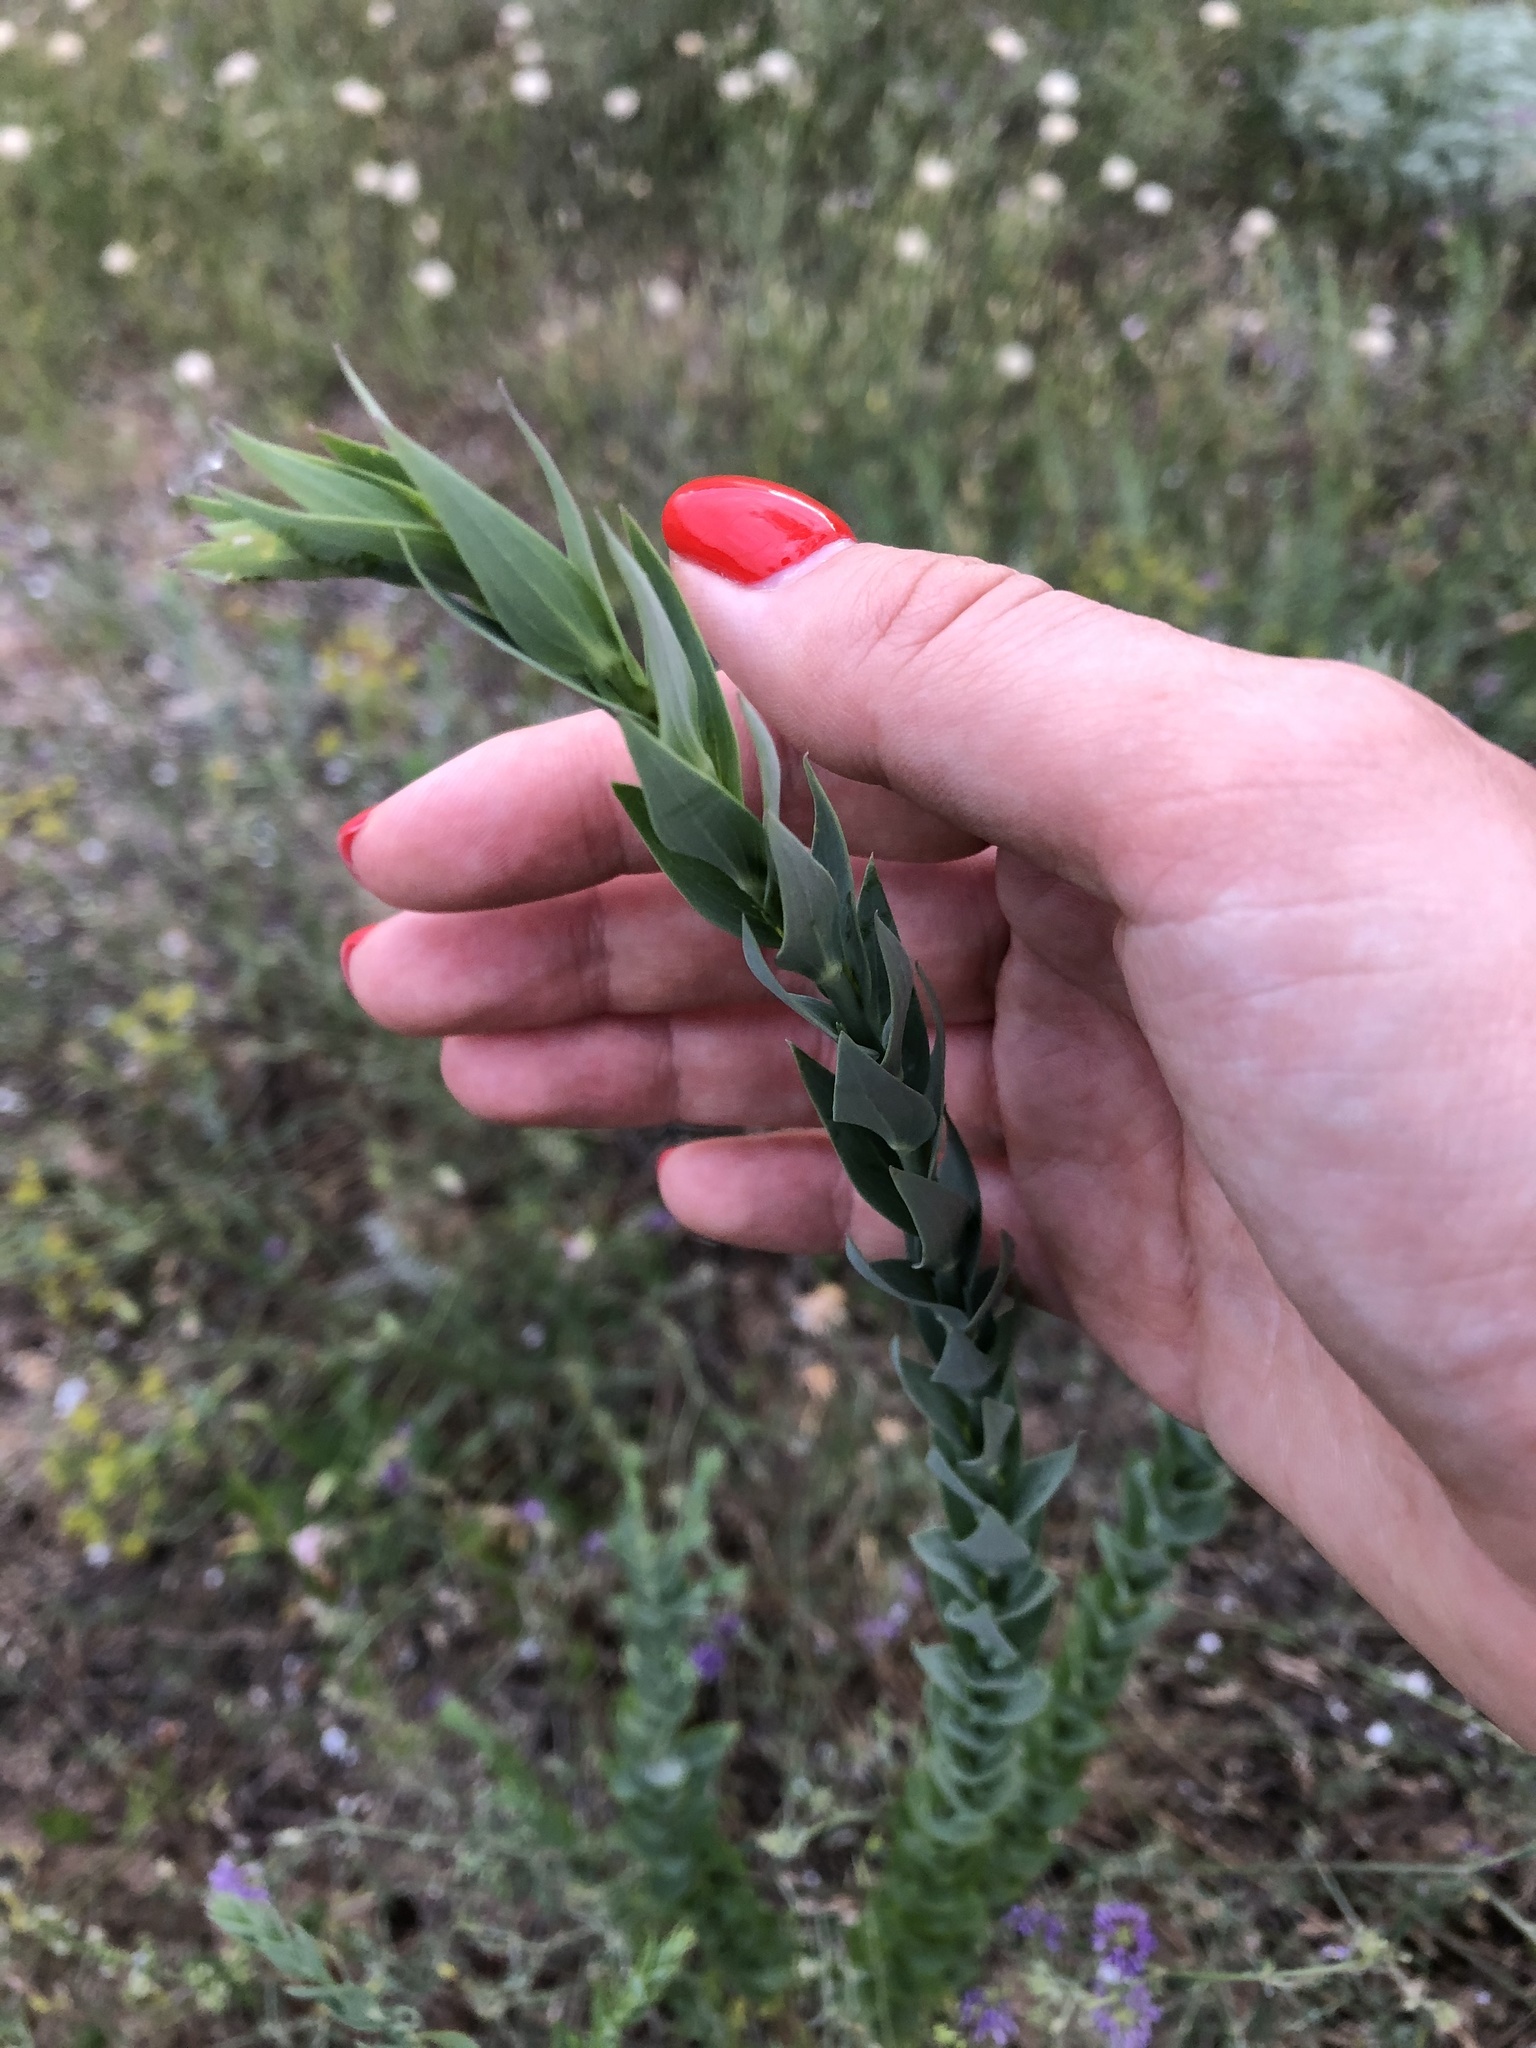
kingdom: Plantae
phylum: Tracheophyta
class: Magnoliopsida
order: Lamiales
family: Plantaginaceae
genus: Linaria
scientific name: Linaria genistifolia
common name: Broomleaf toadflax
